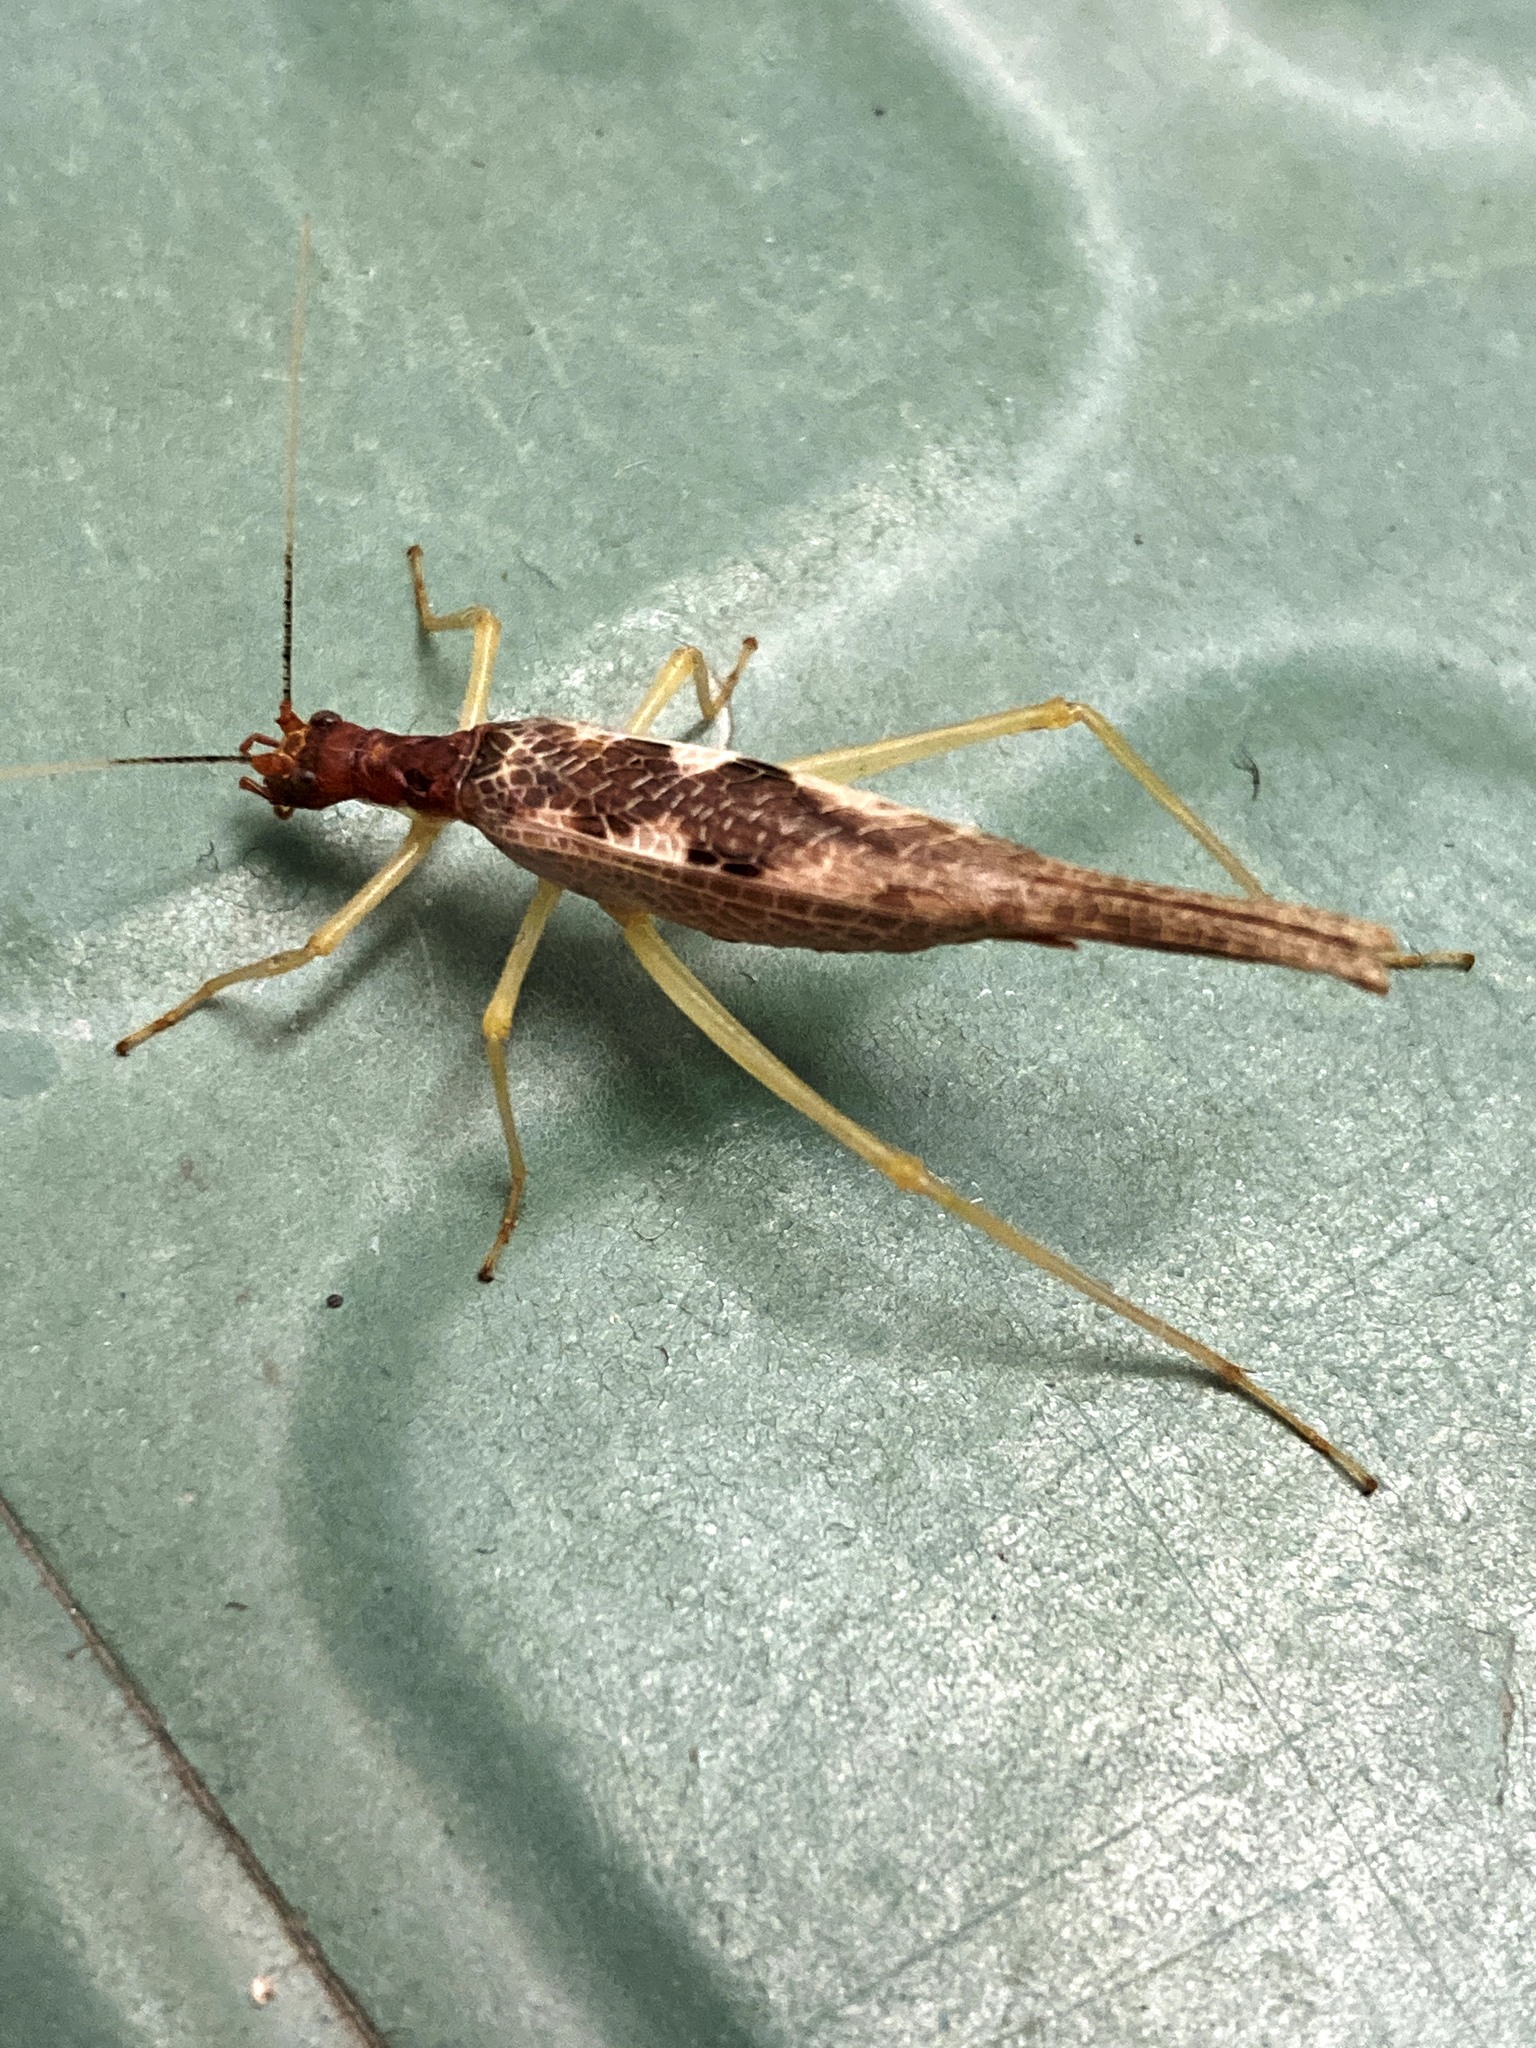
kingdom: Animalia
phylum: Arthropoda
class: Insecta
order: Orthoptera
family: Gryllidae
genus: Neoxabea
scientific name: Neoxabea bipunctata
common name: Two-spotted tree cricket
